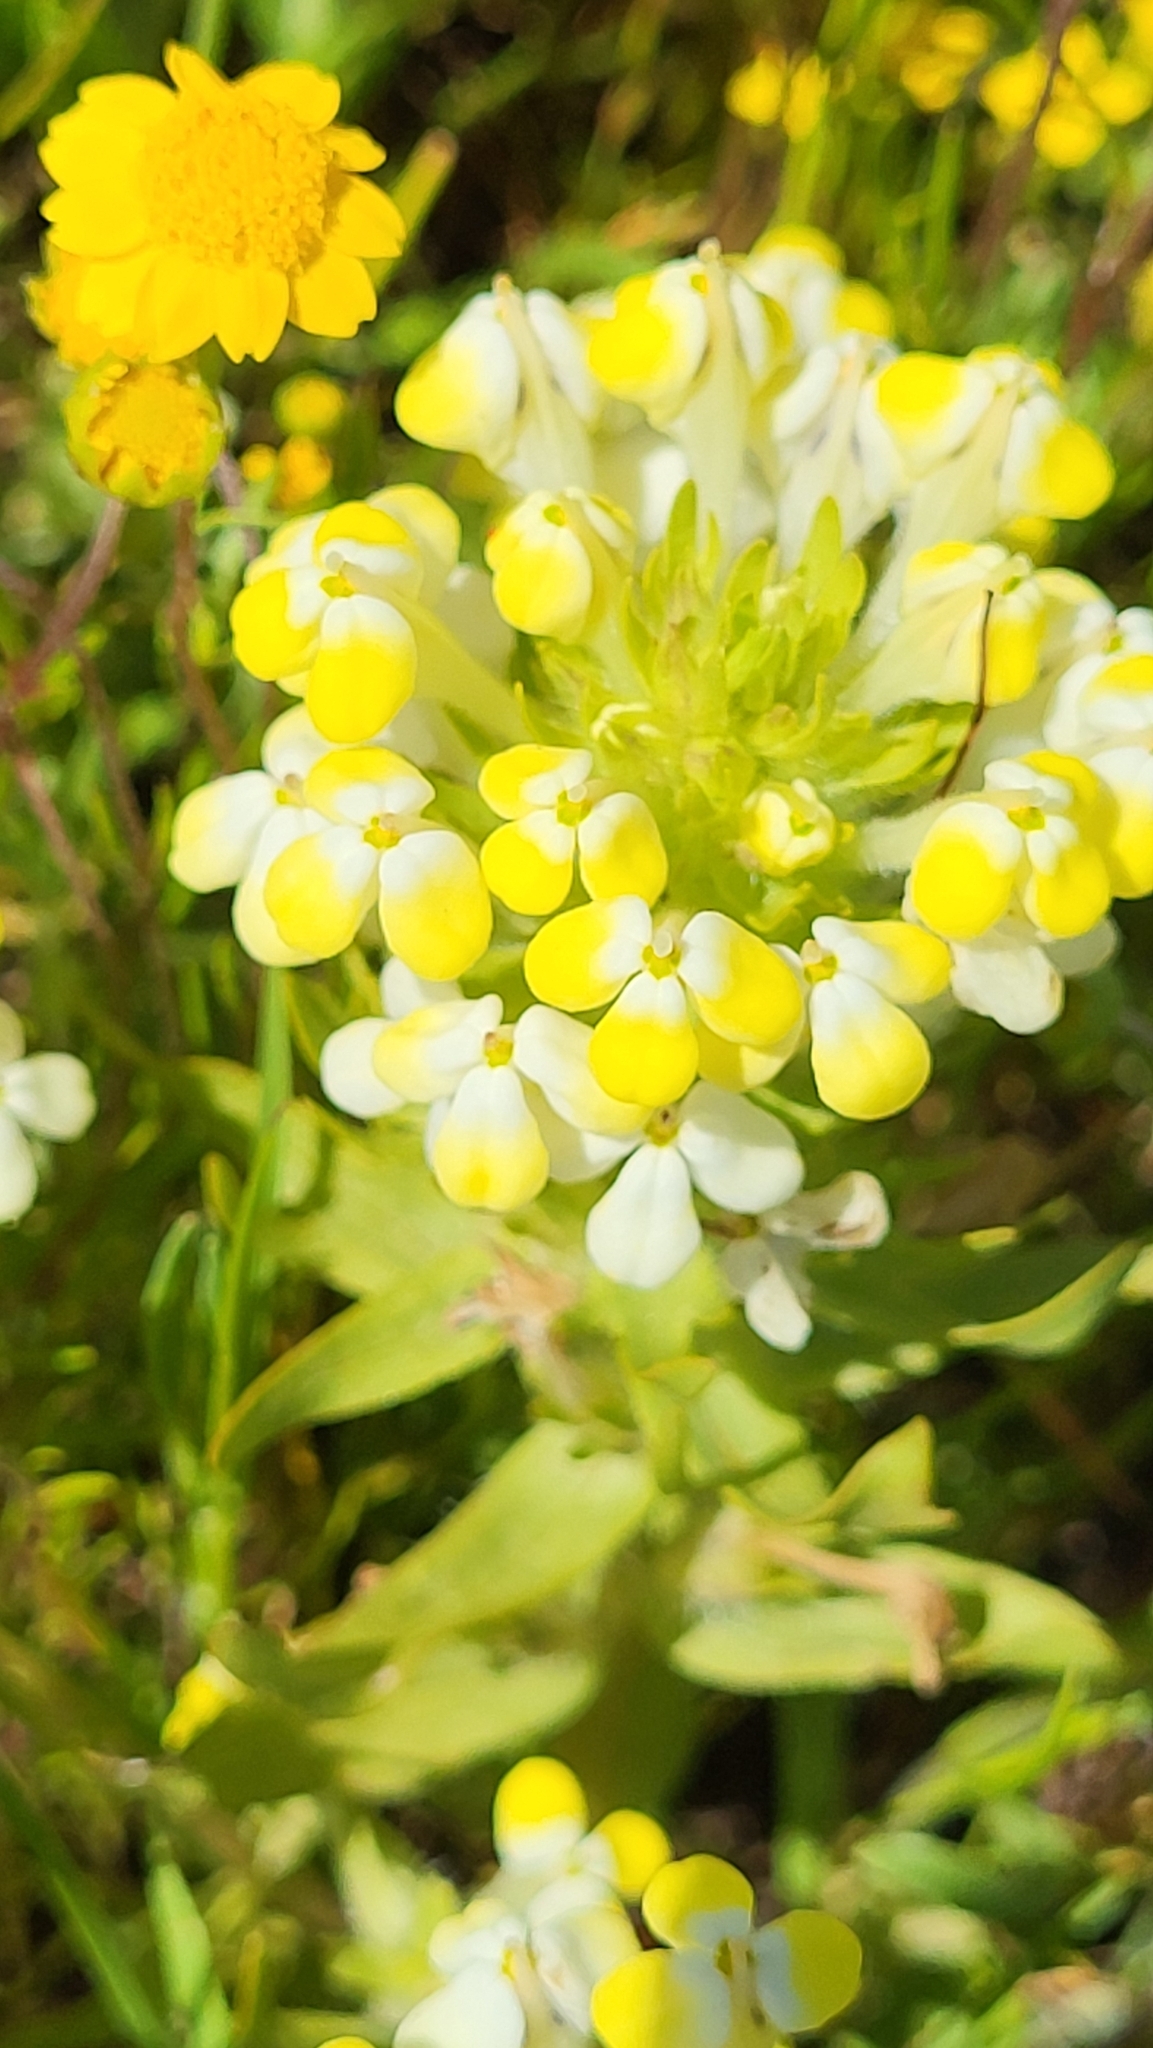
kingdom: Plantae
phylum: Tracheophyta
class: Magnoliopsida
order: Lamiales
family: Orobanchaceae
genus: Castilleja
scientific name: Castilleja campestris
